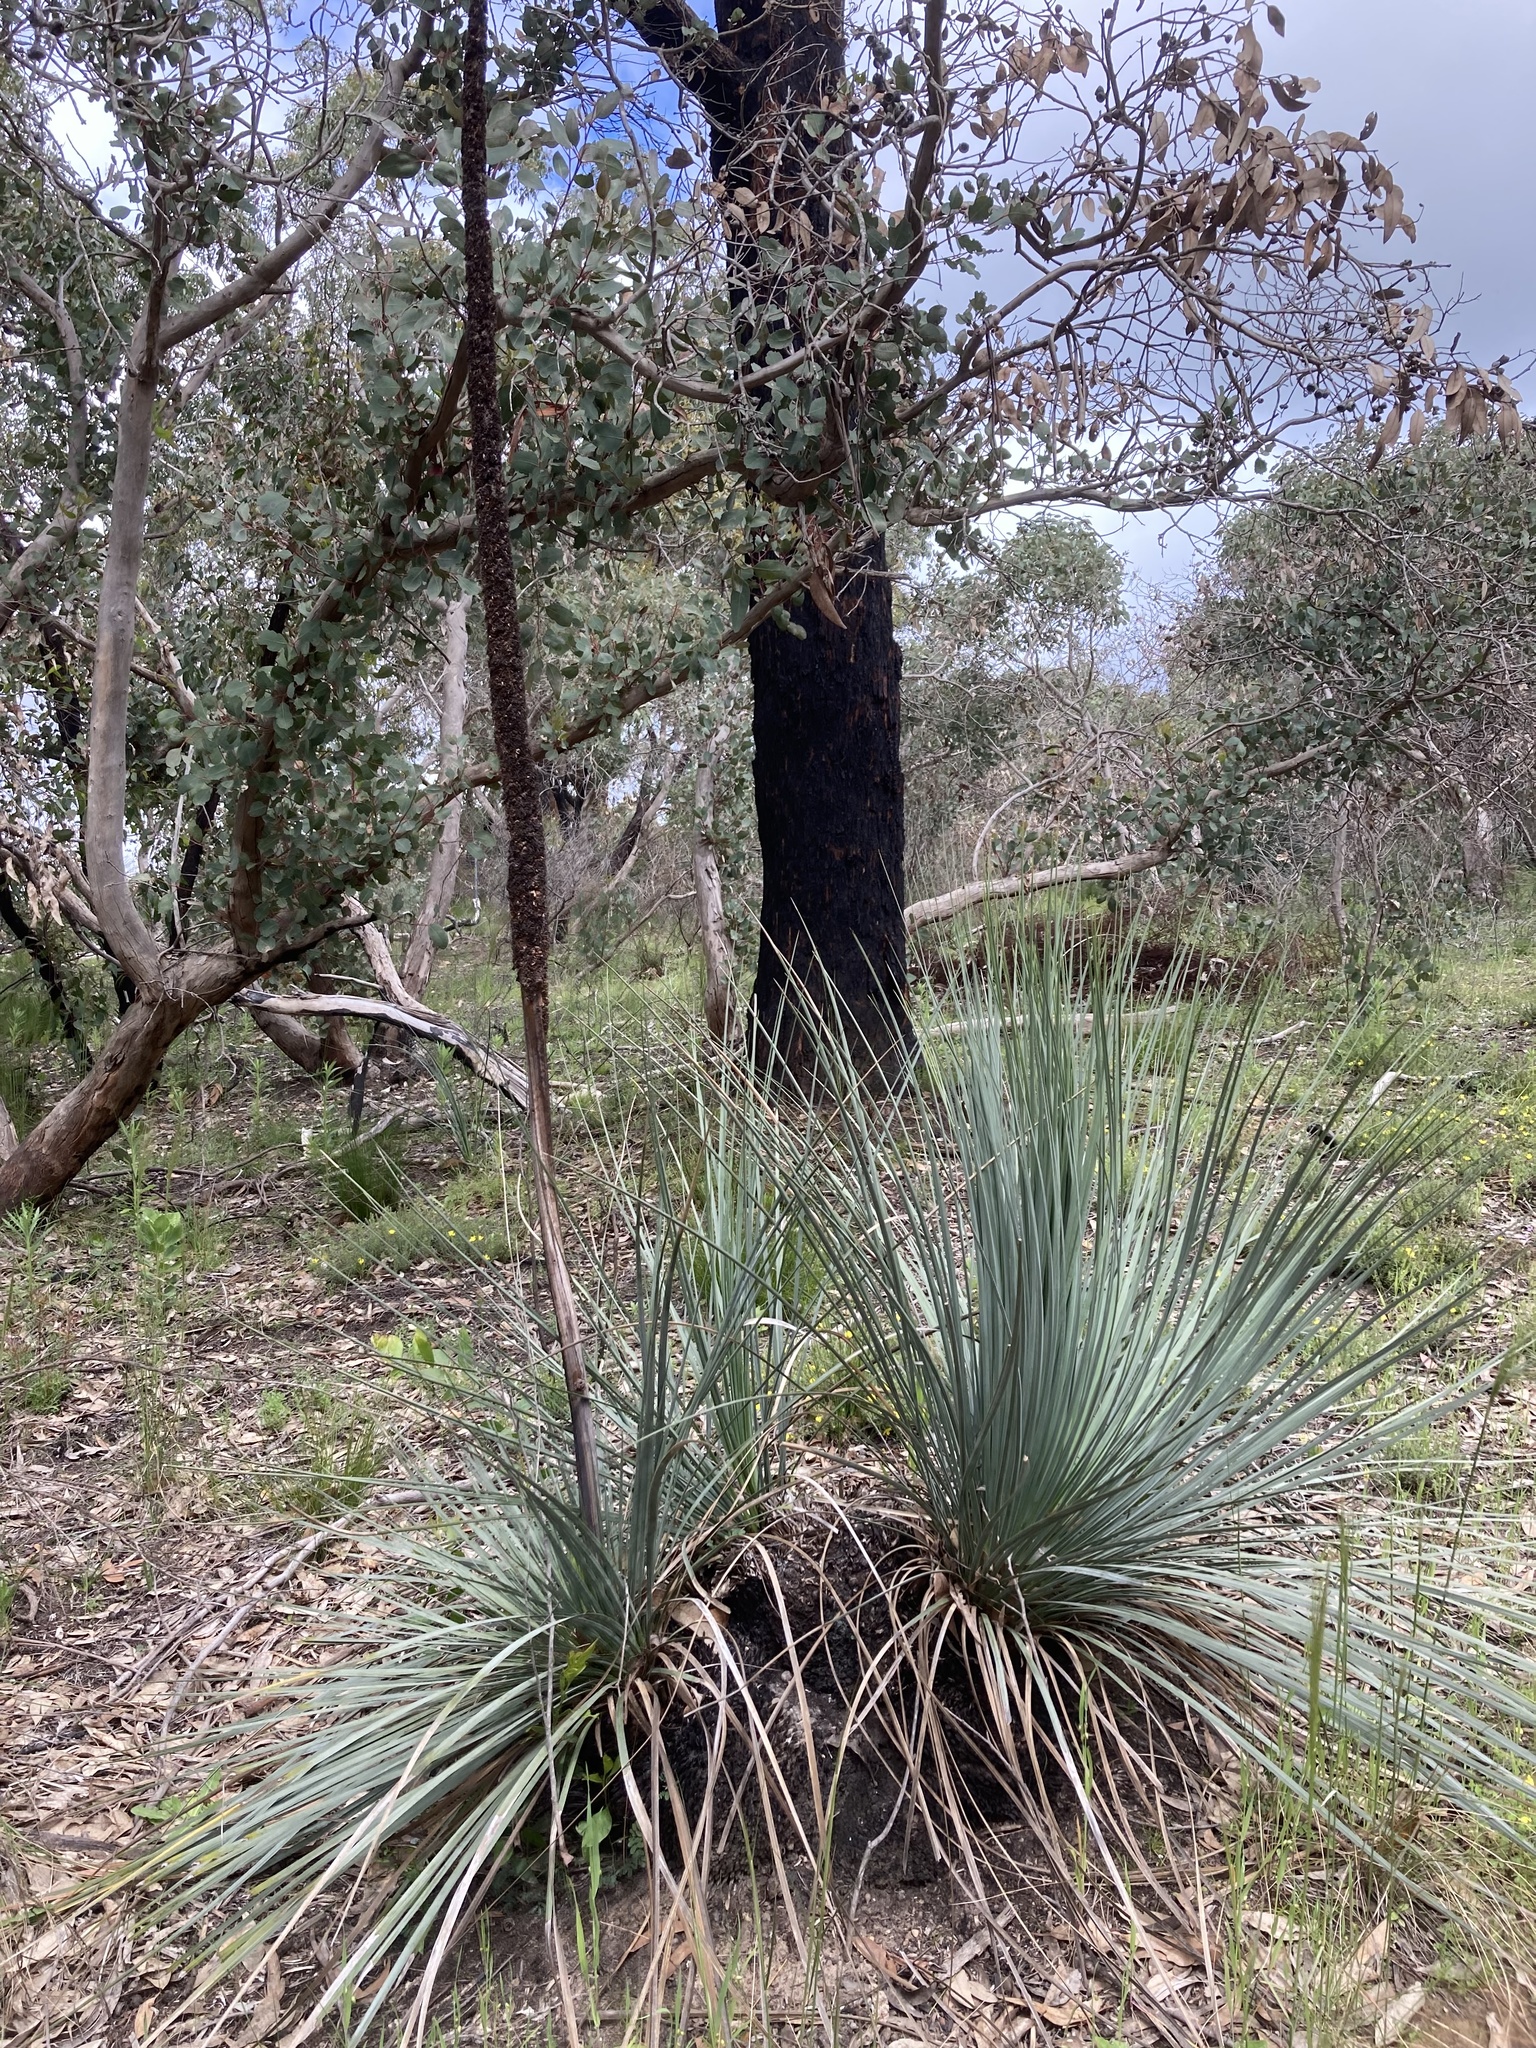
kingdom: Plantae
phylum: Tracheophyta
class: Liliopsida
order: Asparagales
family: Asphodelaceae
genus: Xanthorrhoea
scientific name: Xanthorrhoea semiplana
